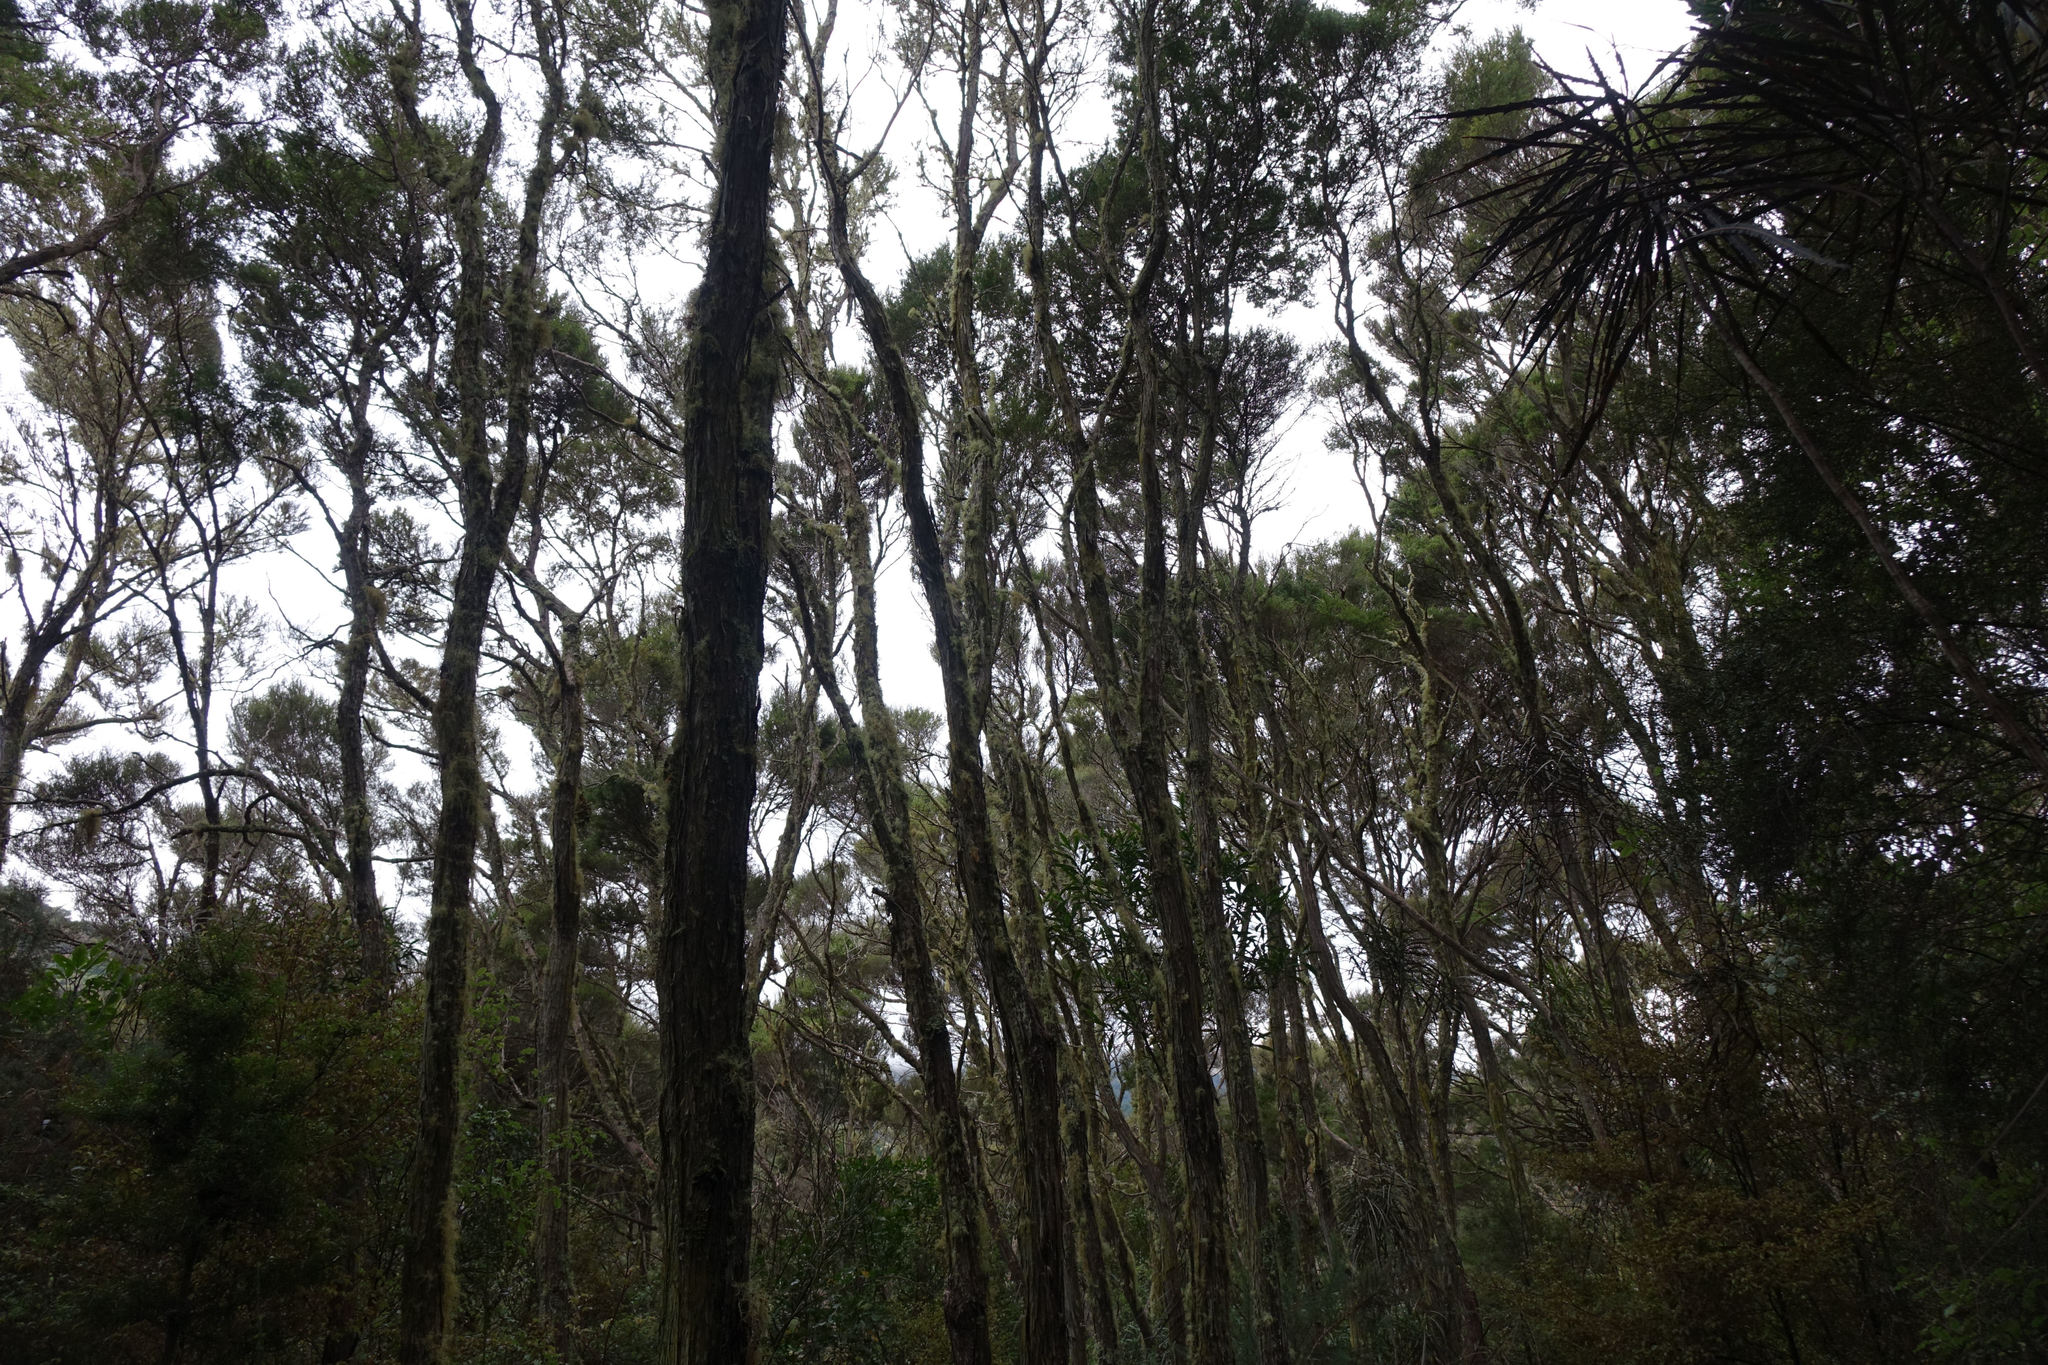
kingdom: Plantae
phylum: Tracheophyta
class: Magnoliopsida
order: Myrtales
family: Myrtaceae
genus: Kunzea
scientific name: Kunzea robusta
